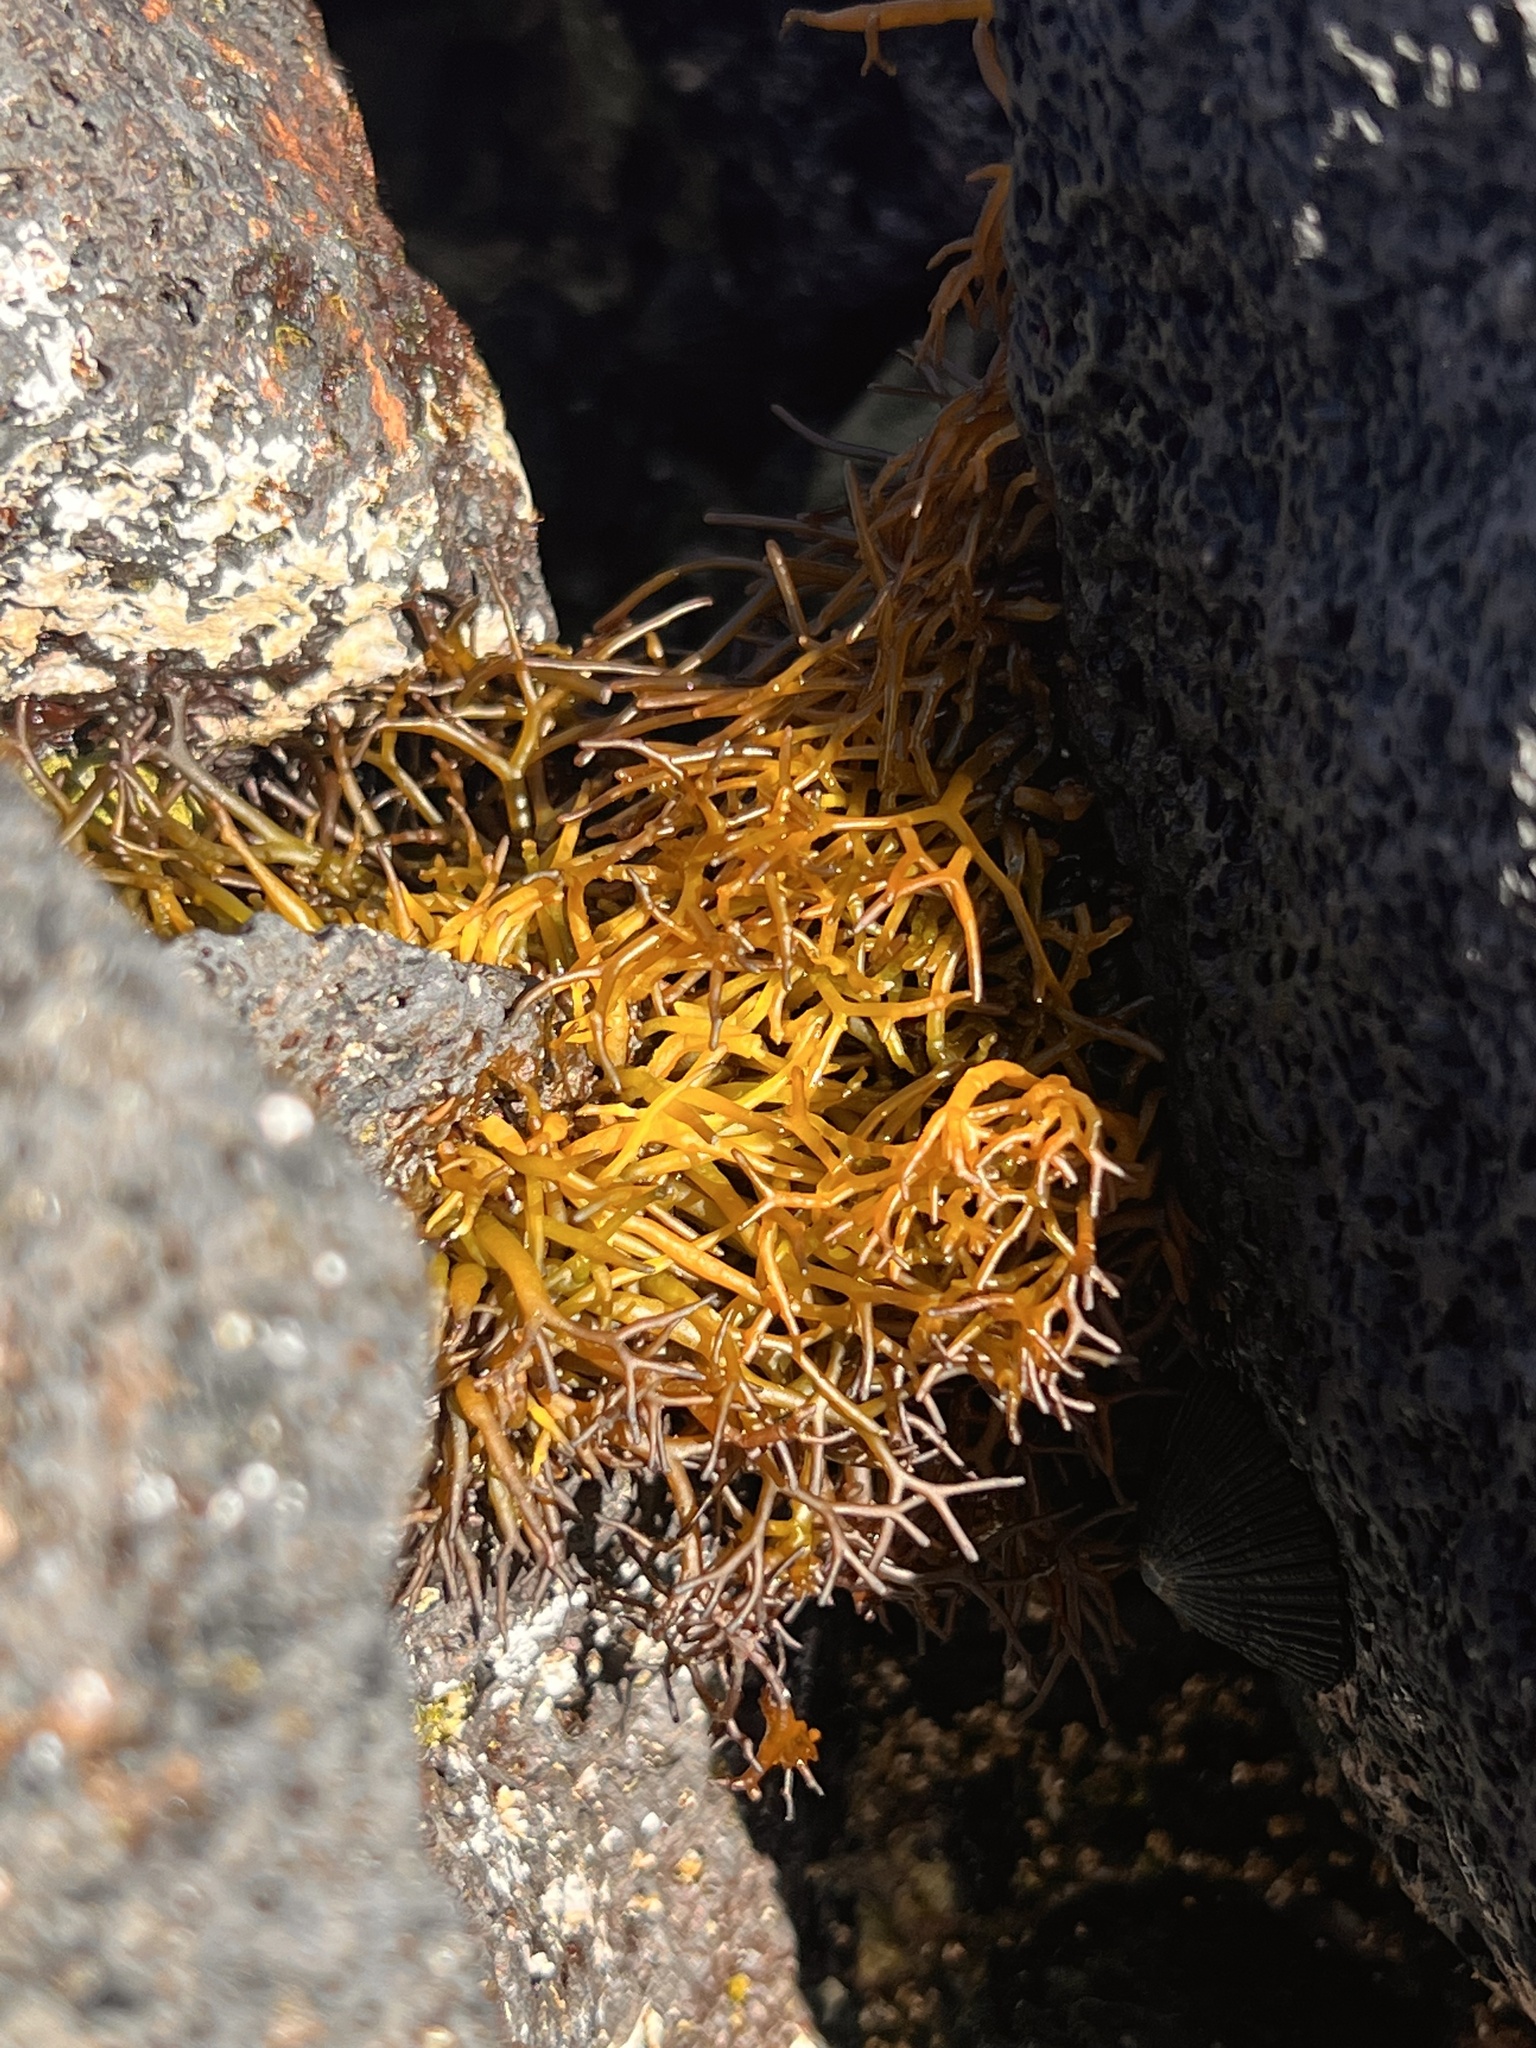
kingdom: Plantae
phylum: Rhodophyta
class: Florideophyceae
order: Gigartinales
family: Phyllophoraceae
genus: Gymnogongrus
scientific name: Gymnogongrus durvillei
